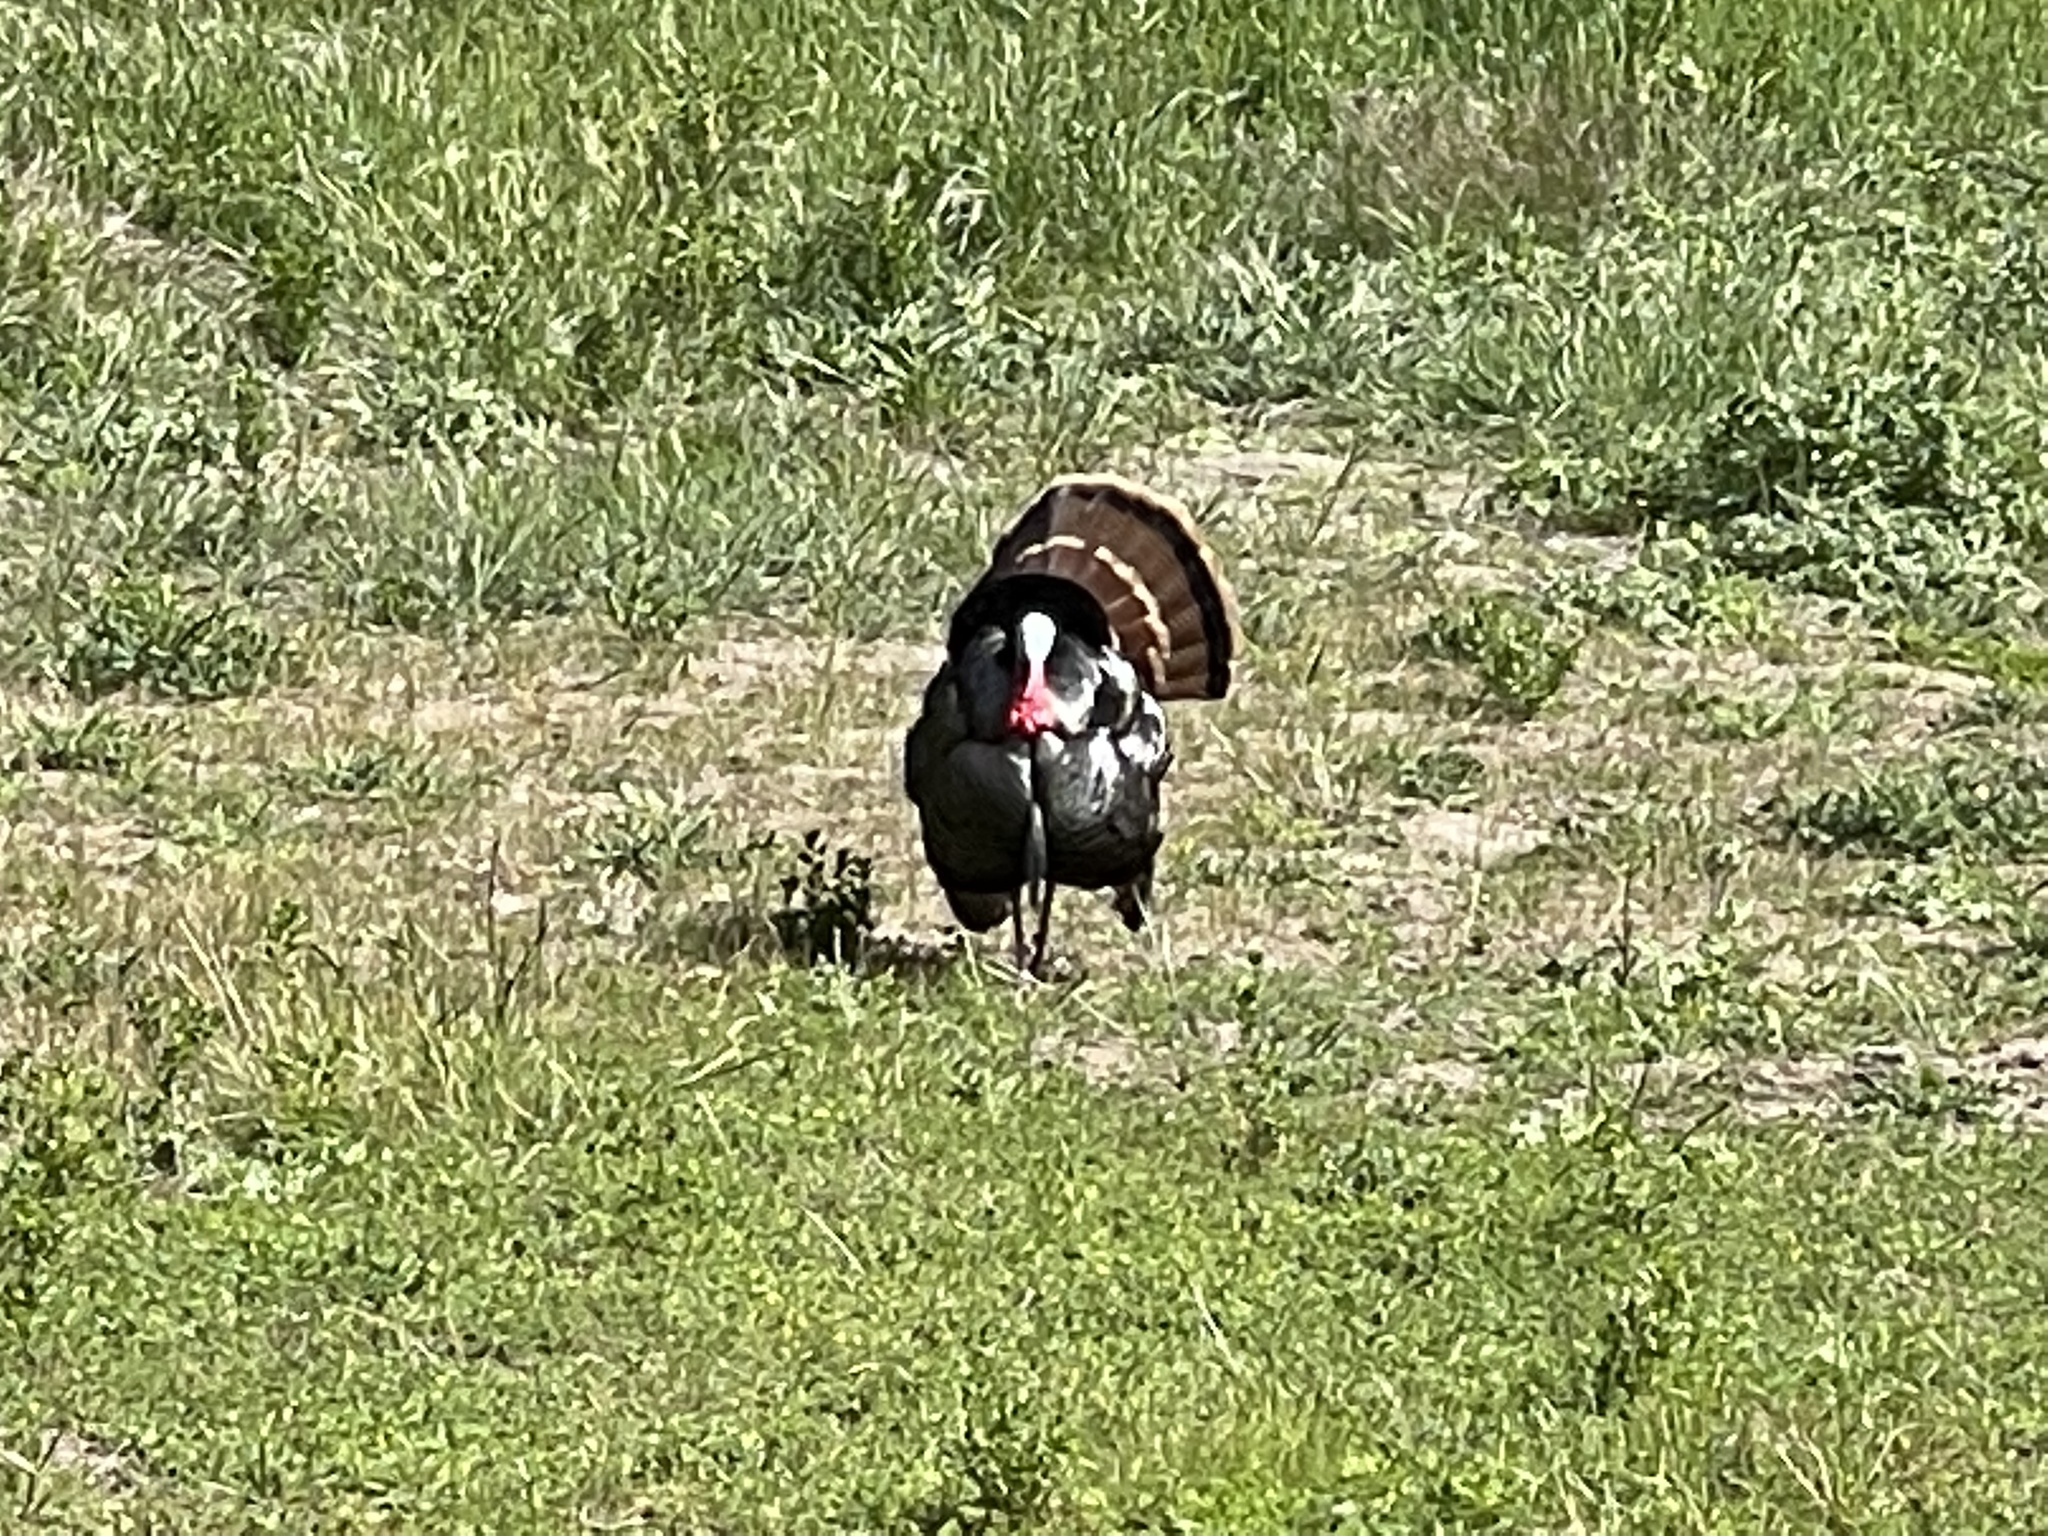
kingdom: Animalia
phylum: Chordata
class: Aves
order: Galliformes
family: Phasianidae
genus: Meleagris
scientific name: Meleagris gallopavo
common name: Wild turkey
